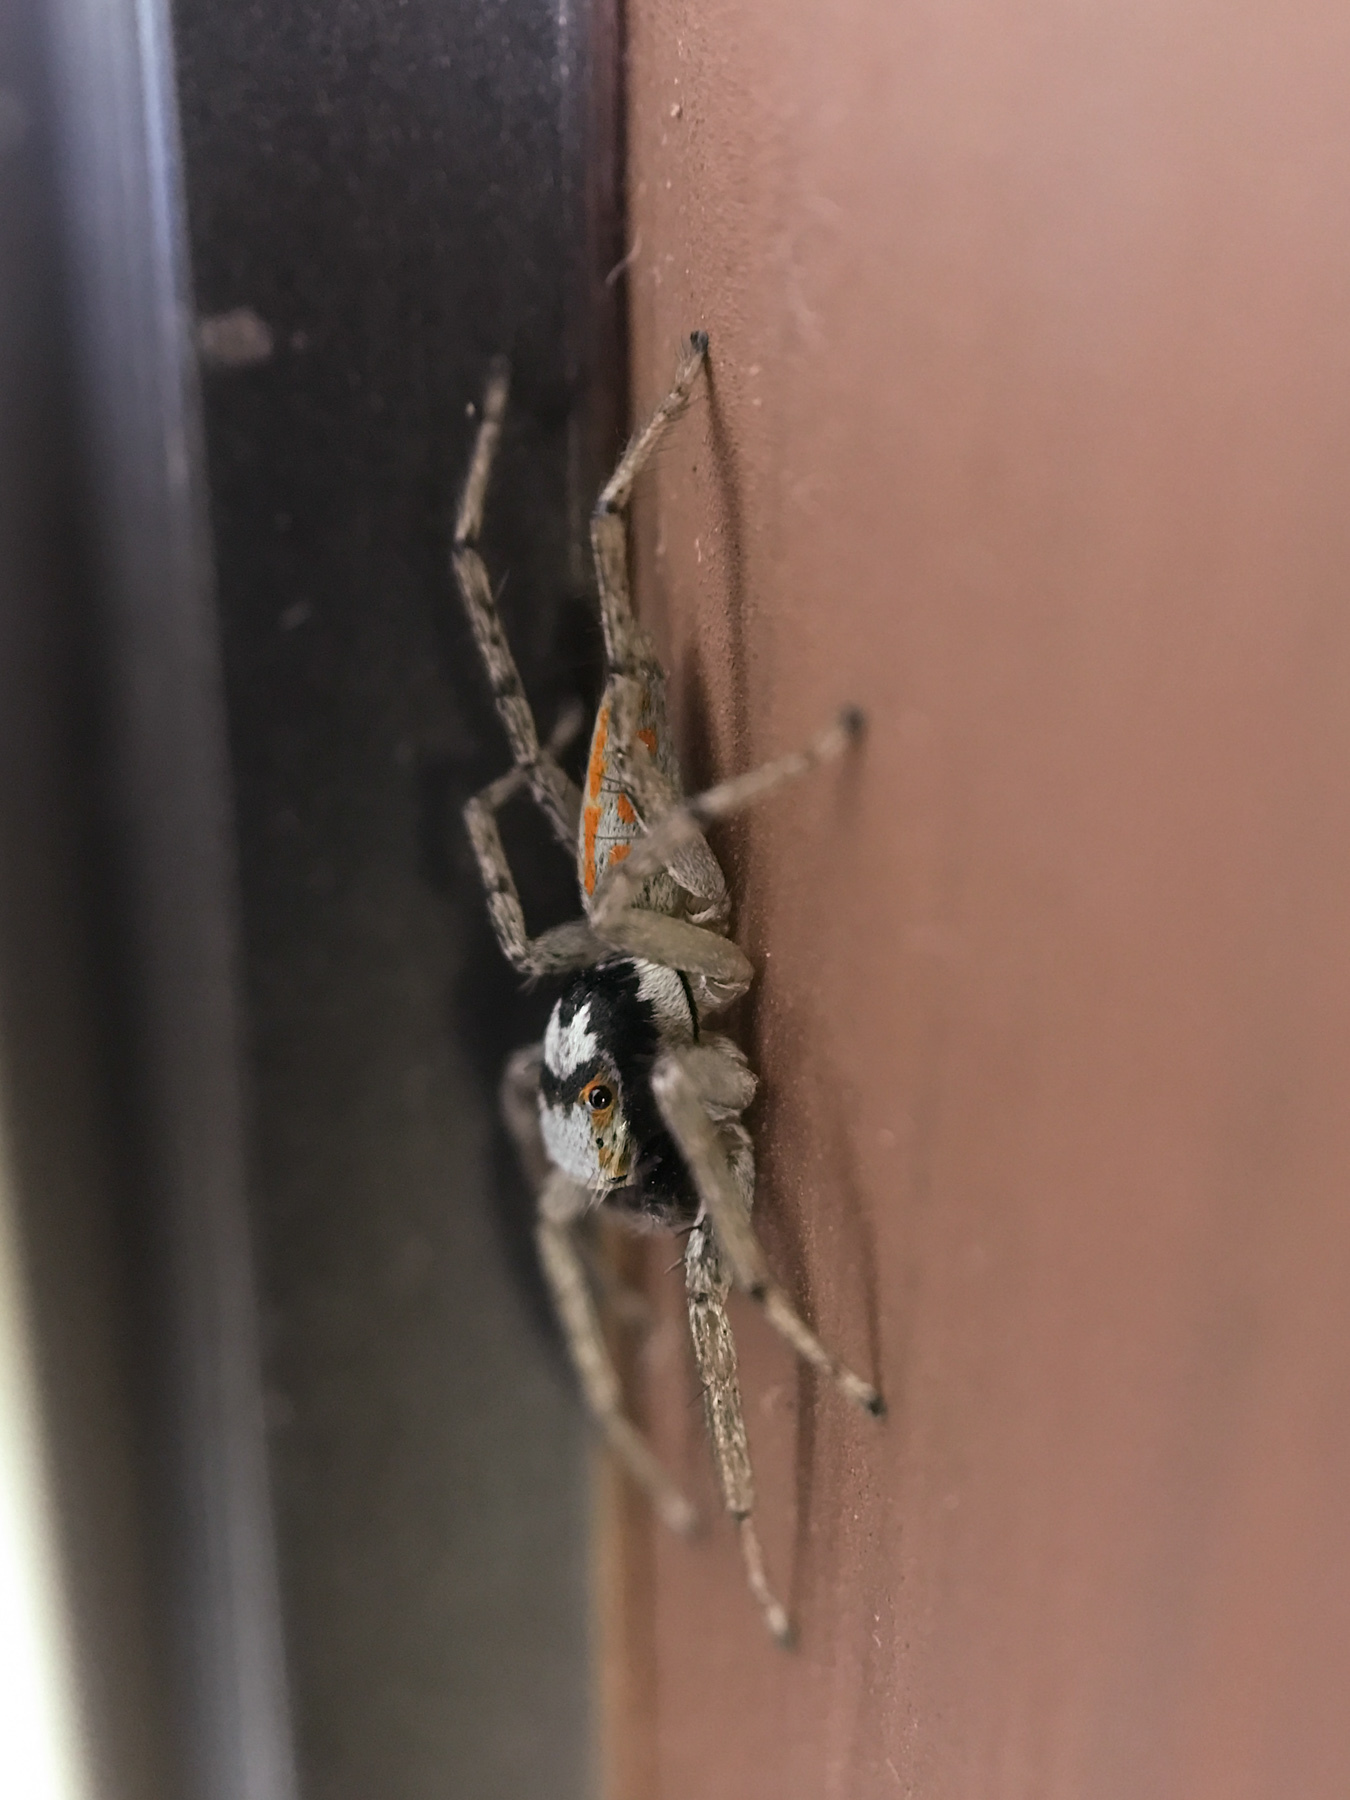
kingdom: Animalia
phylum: Arthropoda
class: Arachnida
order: Araneae
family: Salticidae
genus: Paramaevia
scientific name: Paramaevia poultoni
